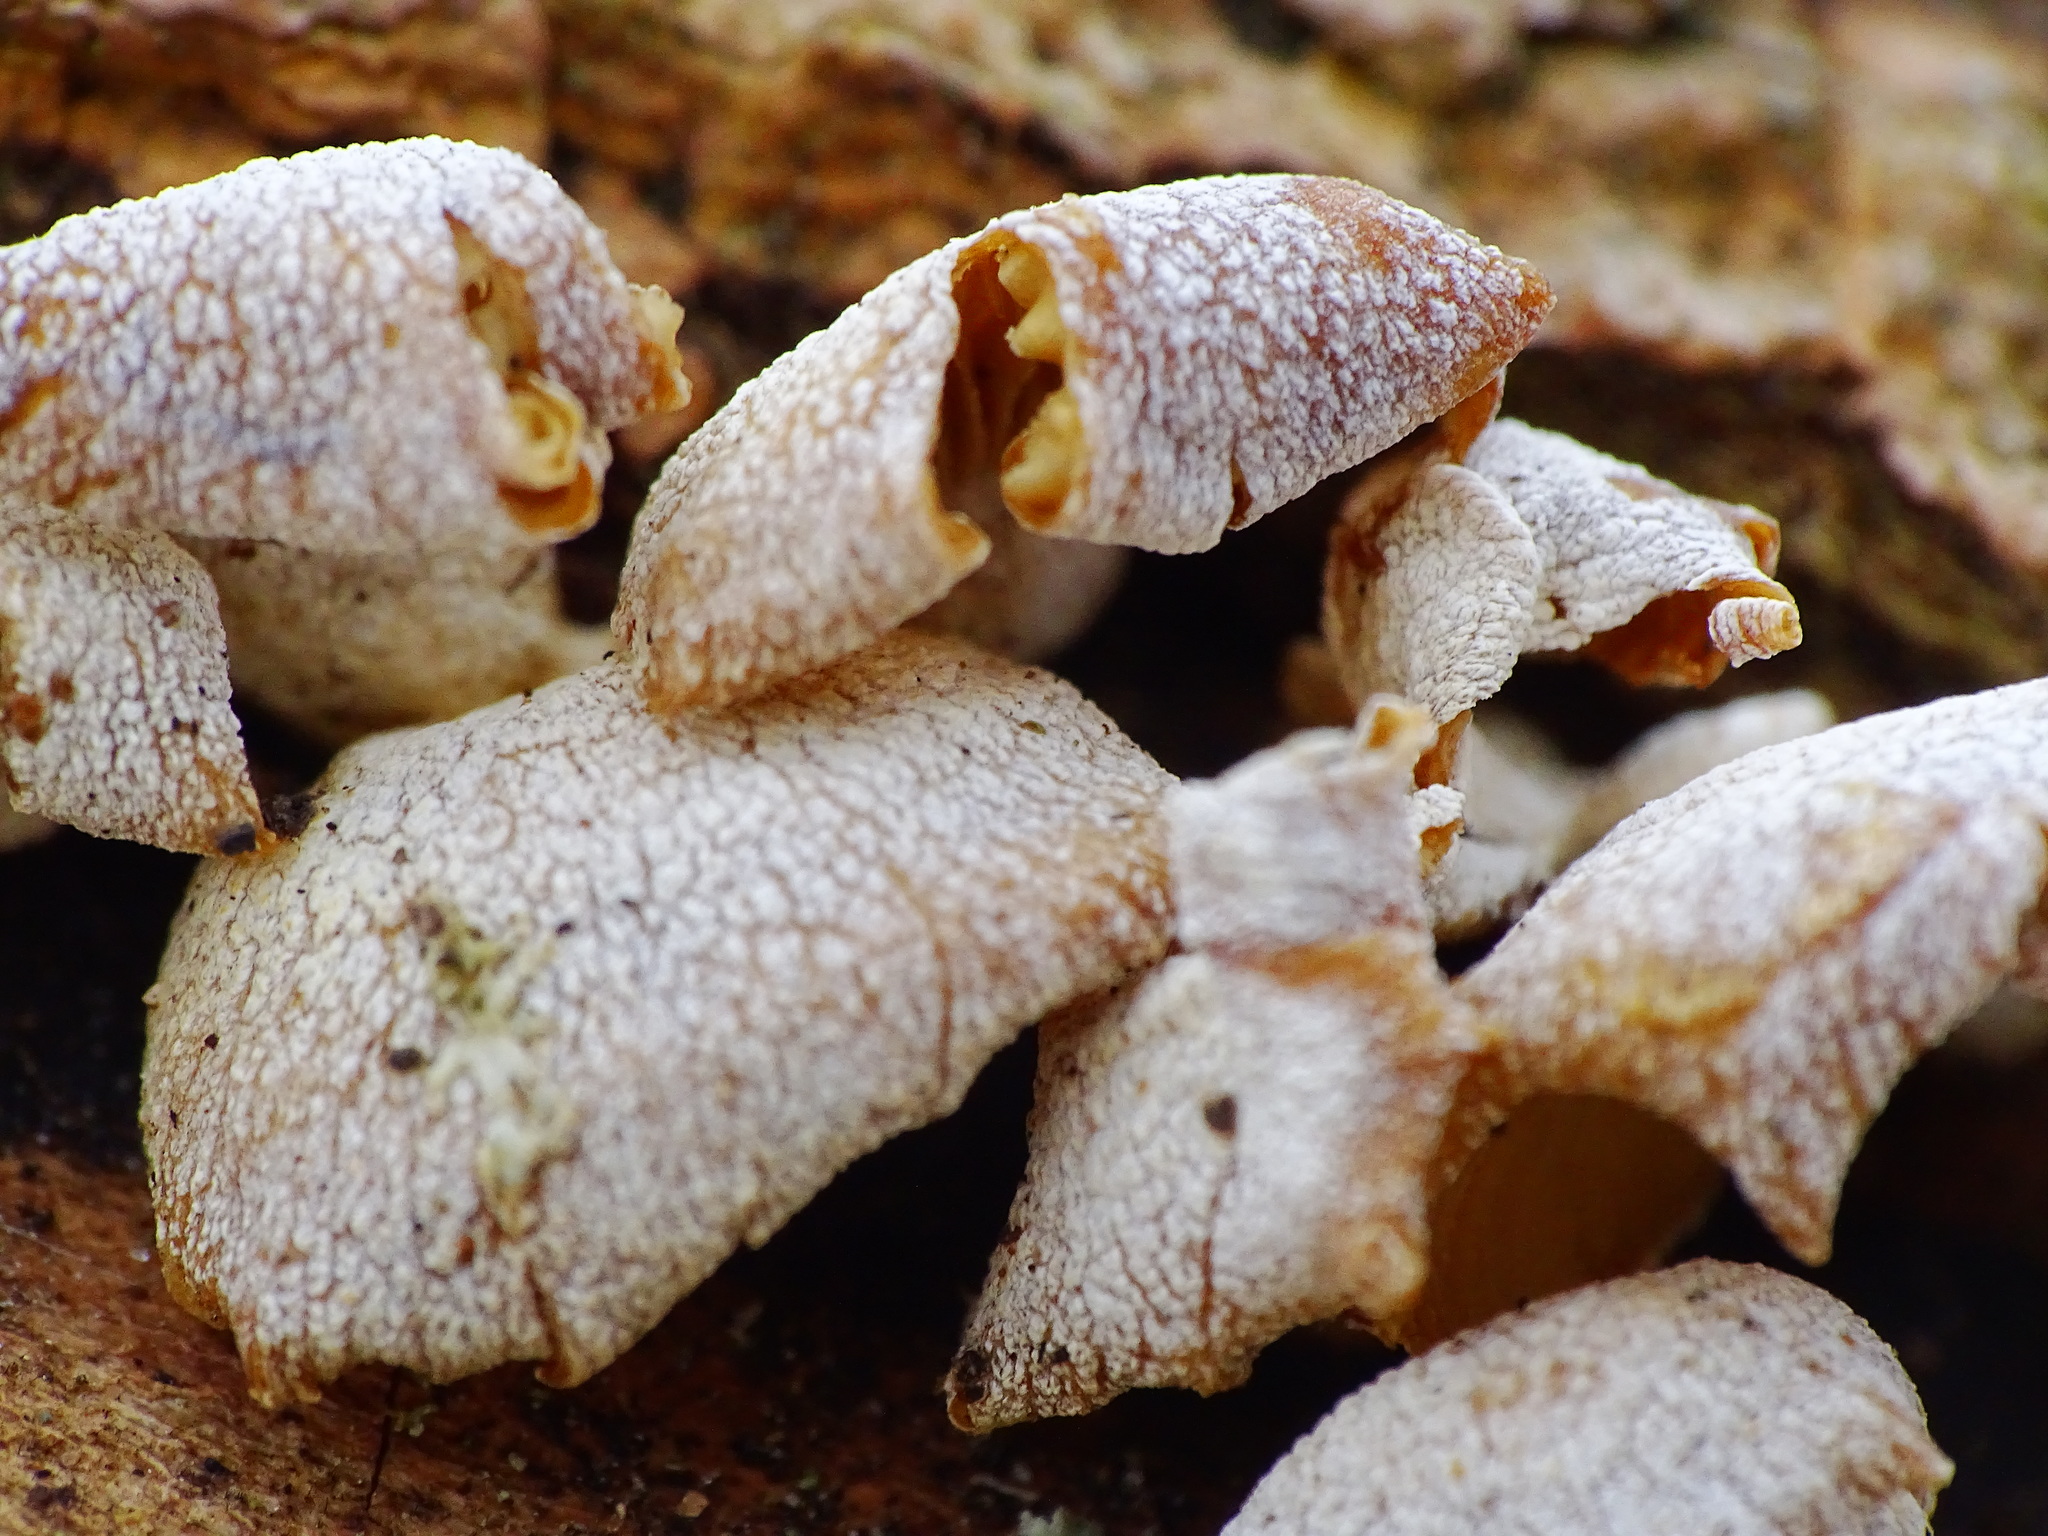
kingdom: Fungi
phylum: Basidiomycota
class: Agaricomycetes
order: Agaricales
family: Mycenaceae
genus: Panellus
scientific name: Panellus stipticus
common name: Bitter oysterling
